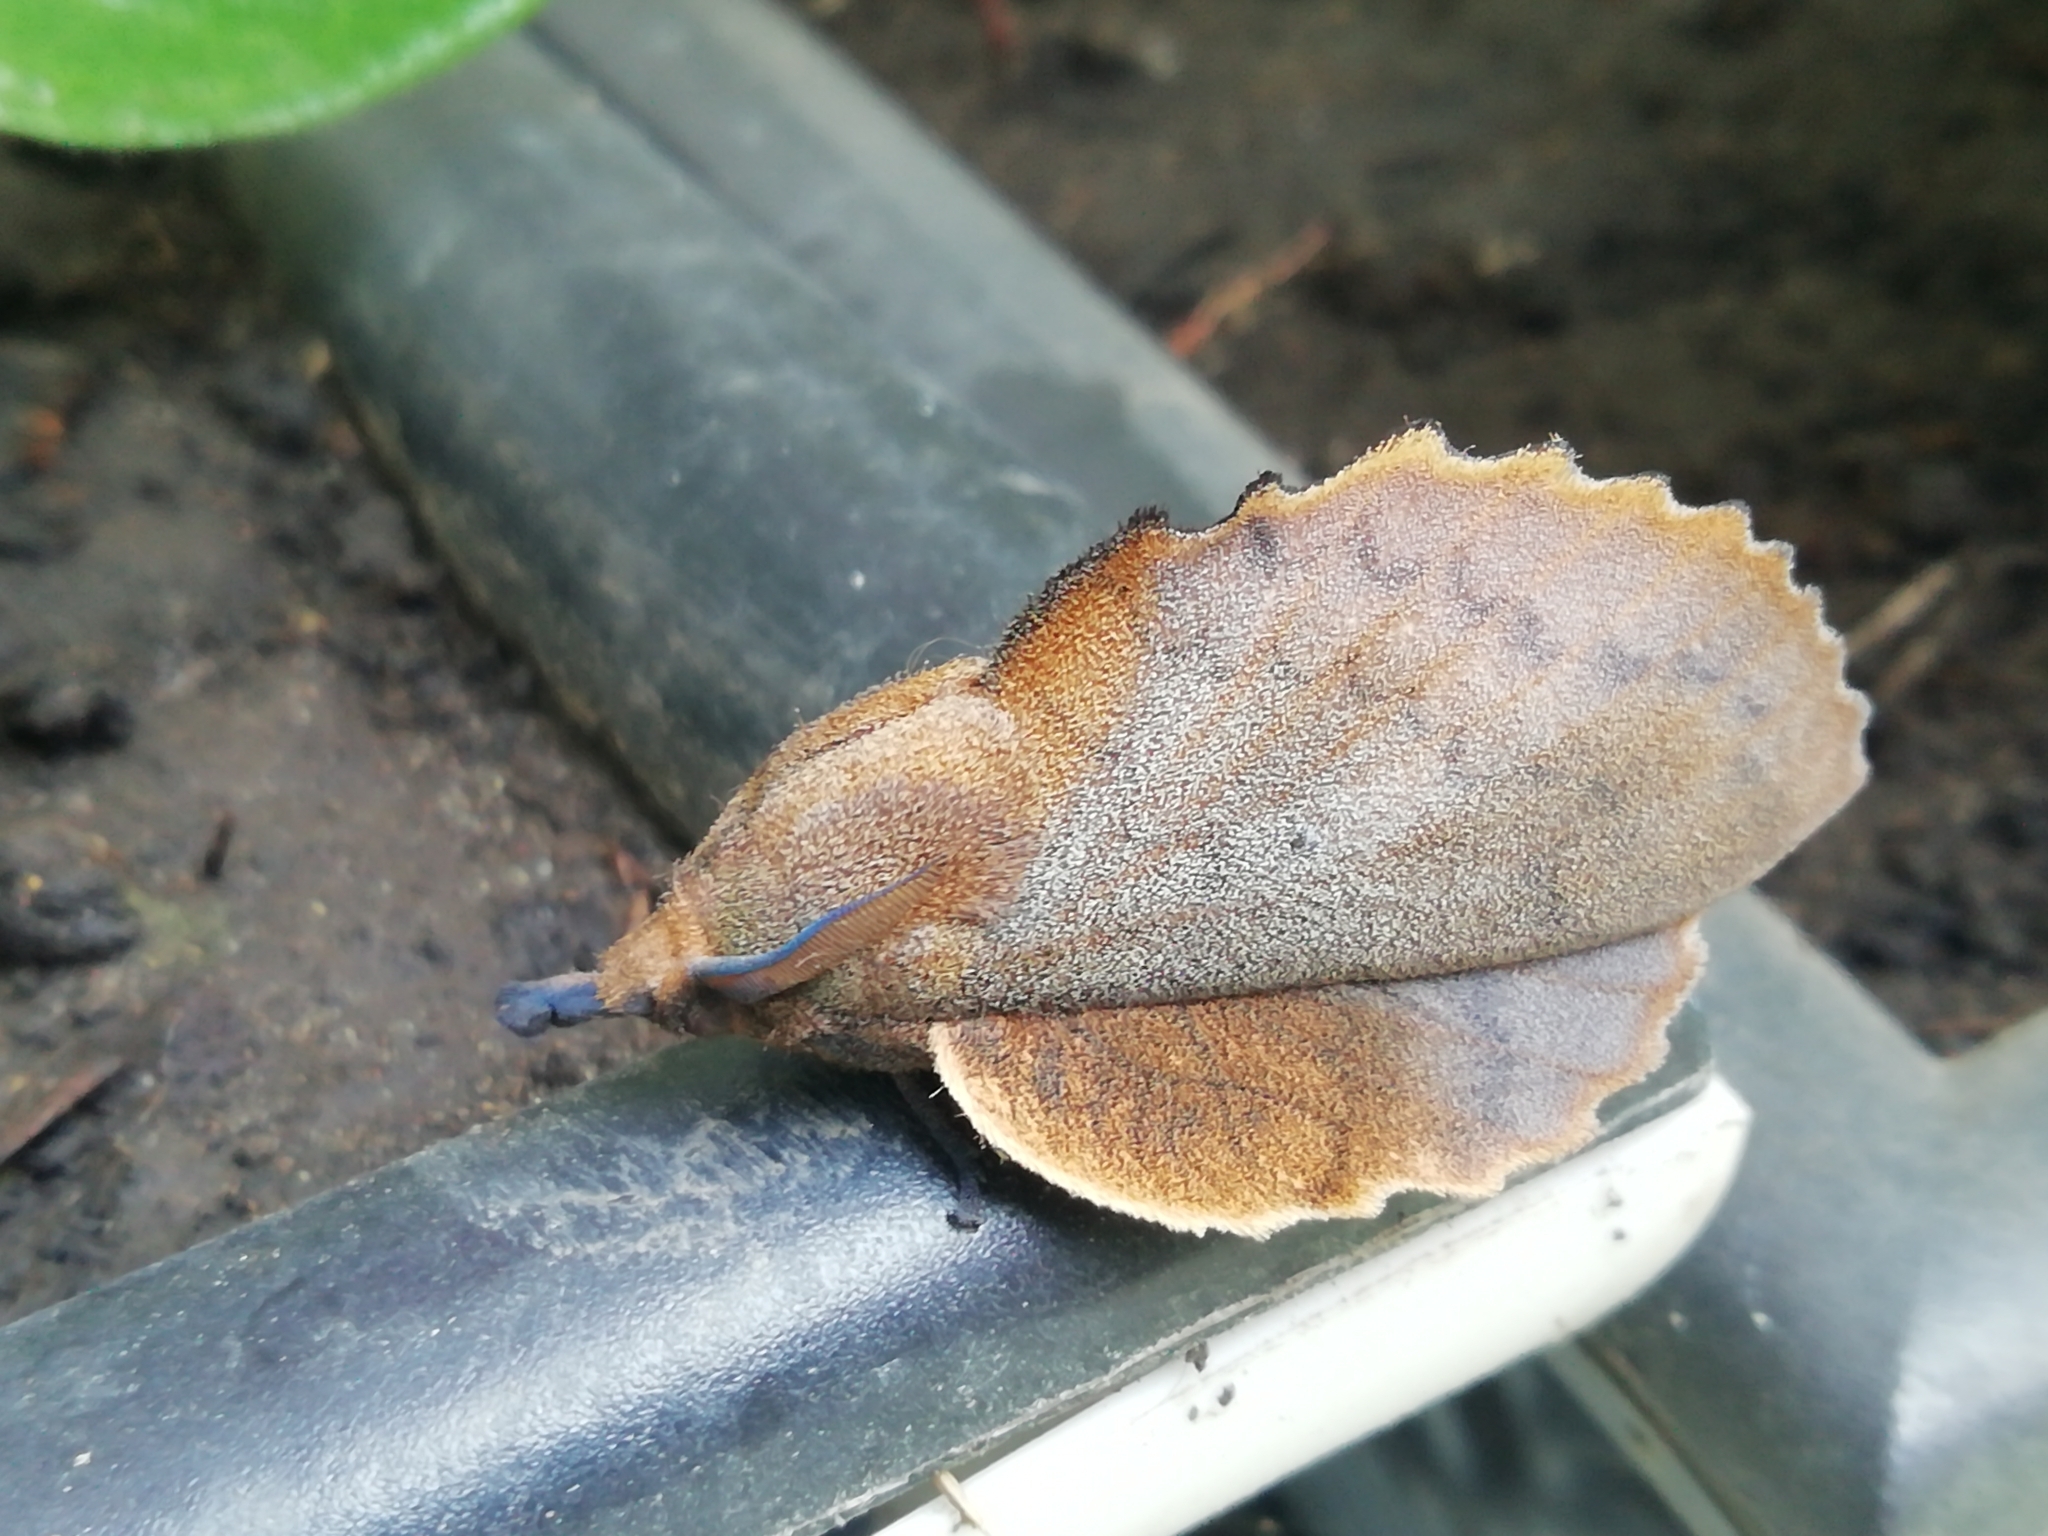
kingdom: Animalia
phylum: Arthropoda
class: Insecta
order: Lepidoptera
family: Lasiocampidae
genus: Gastropacha
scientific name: Gastropacha quercifolia
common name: Lappet
